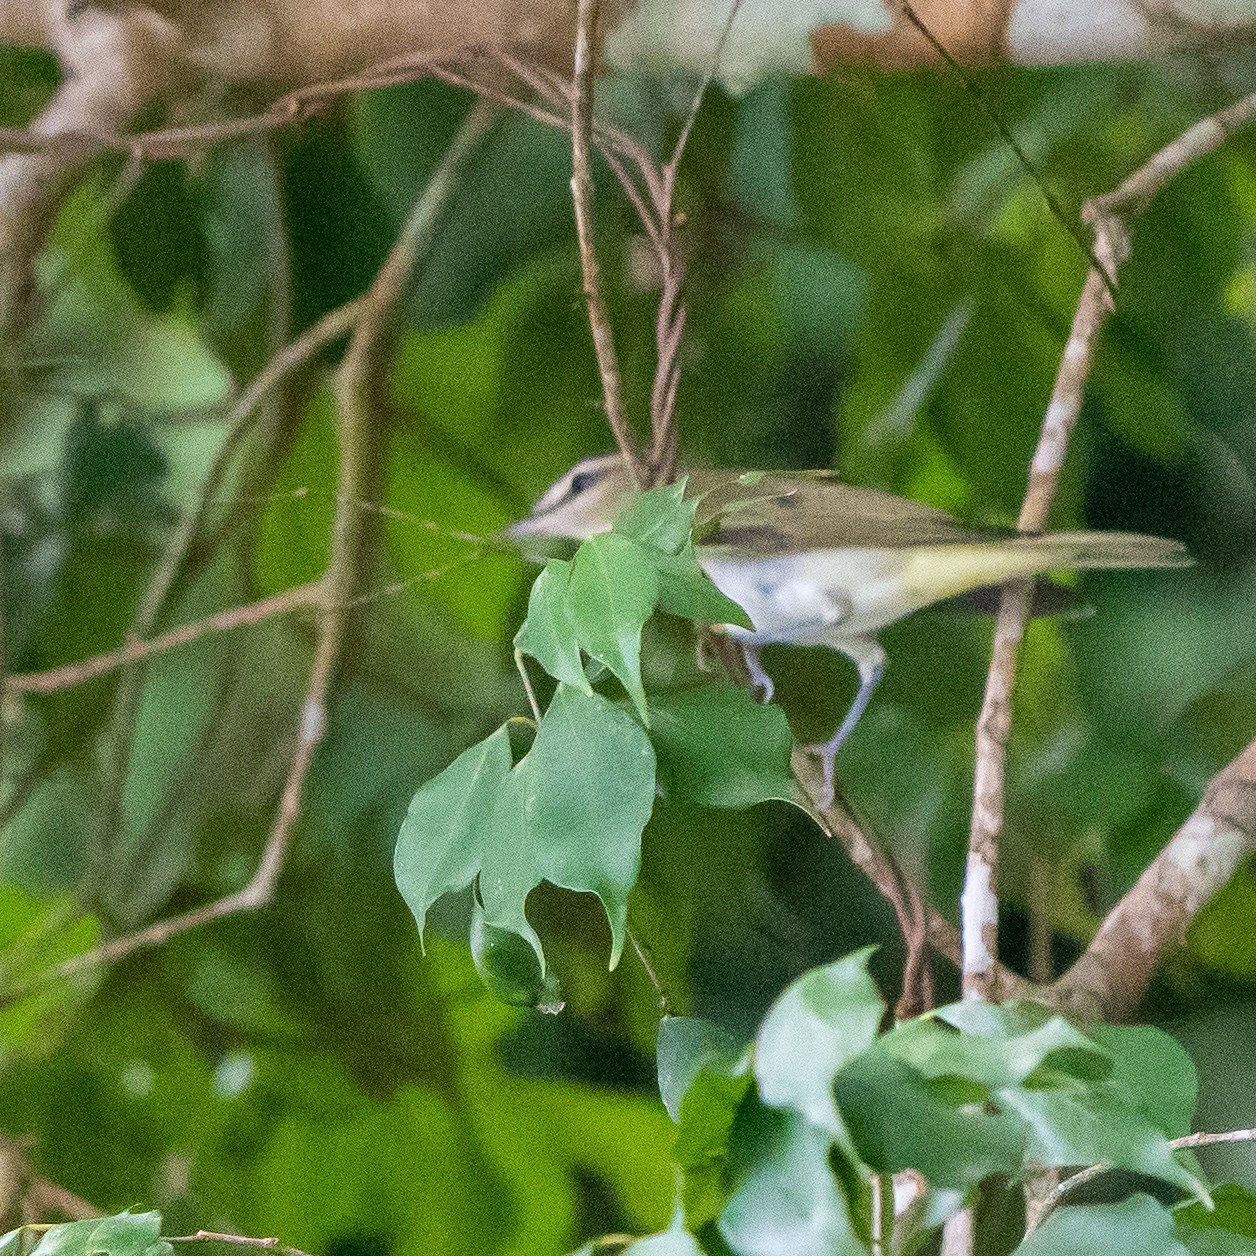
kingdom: Animalia
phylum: Chordata
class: Aves
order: Passeriformes
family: Vireonidae
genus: Vireo
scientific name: Vireo olivaceus
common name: Red-eyed vireo
